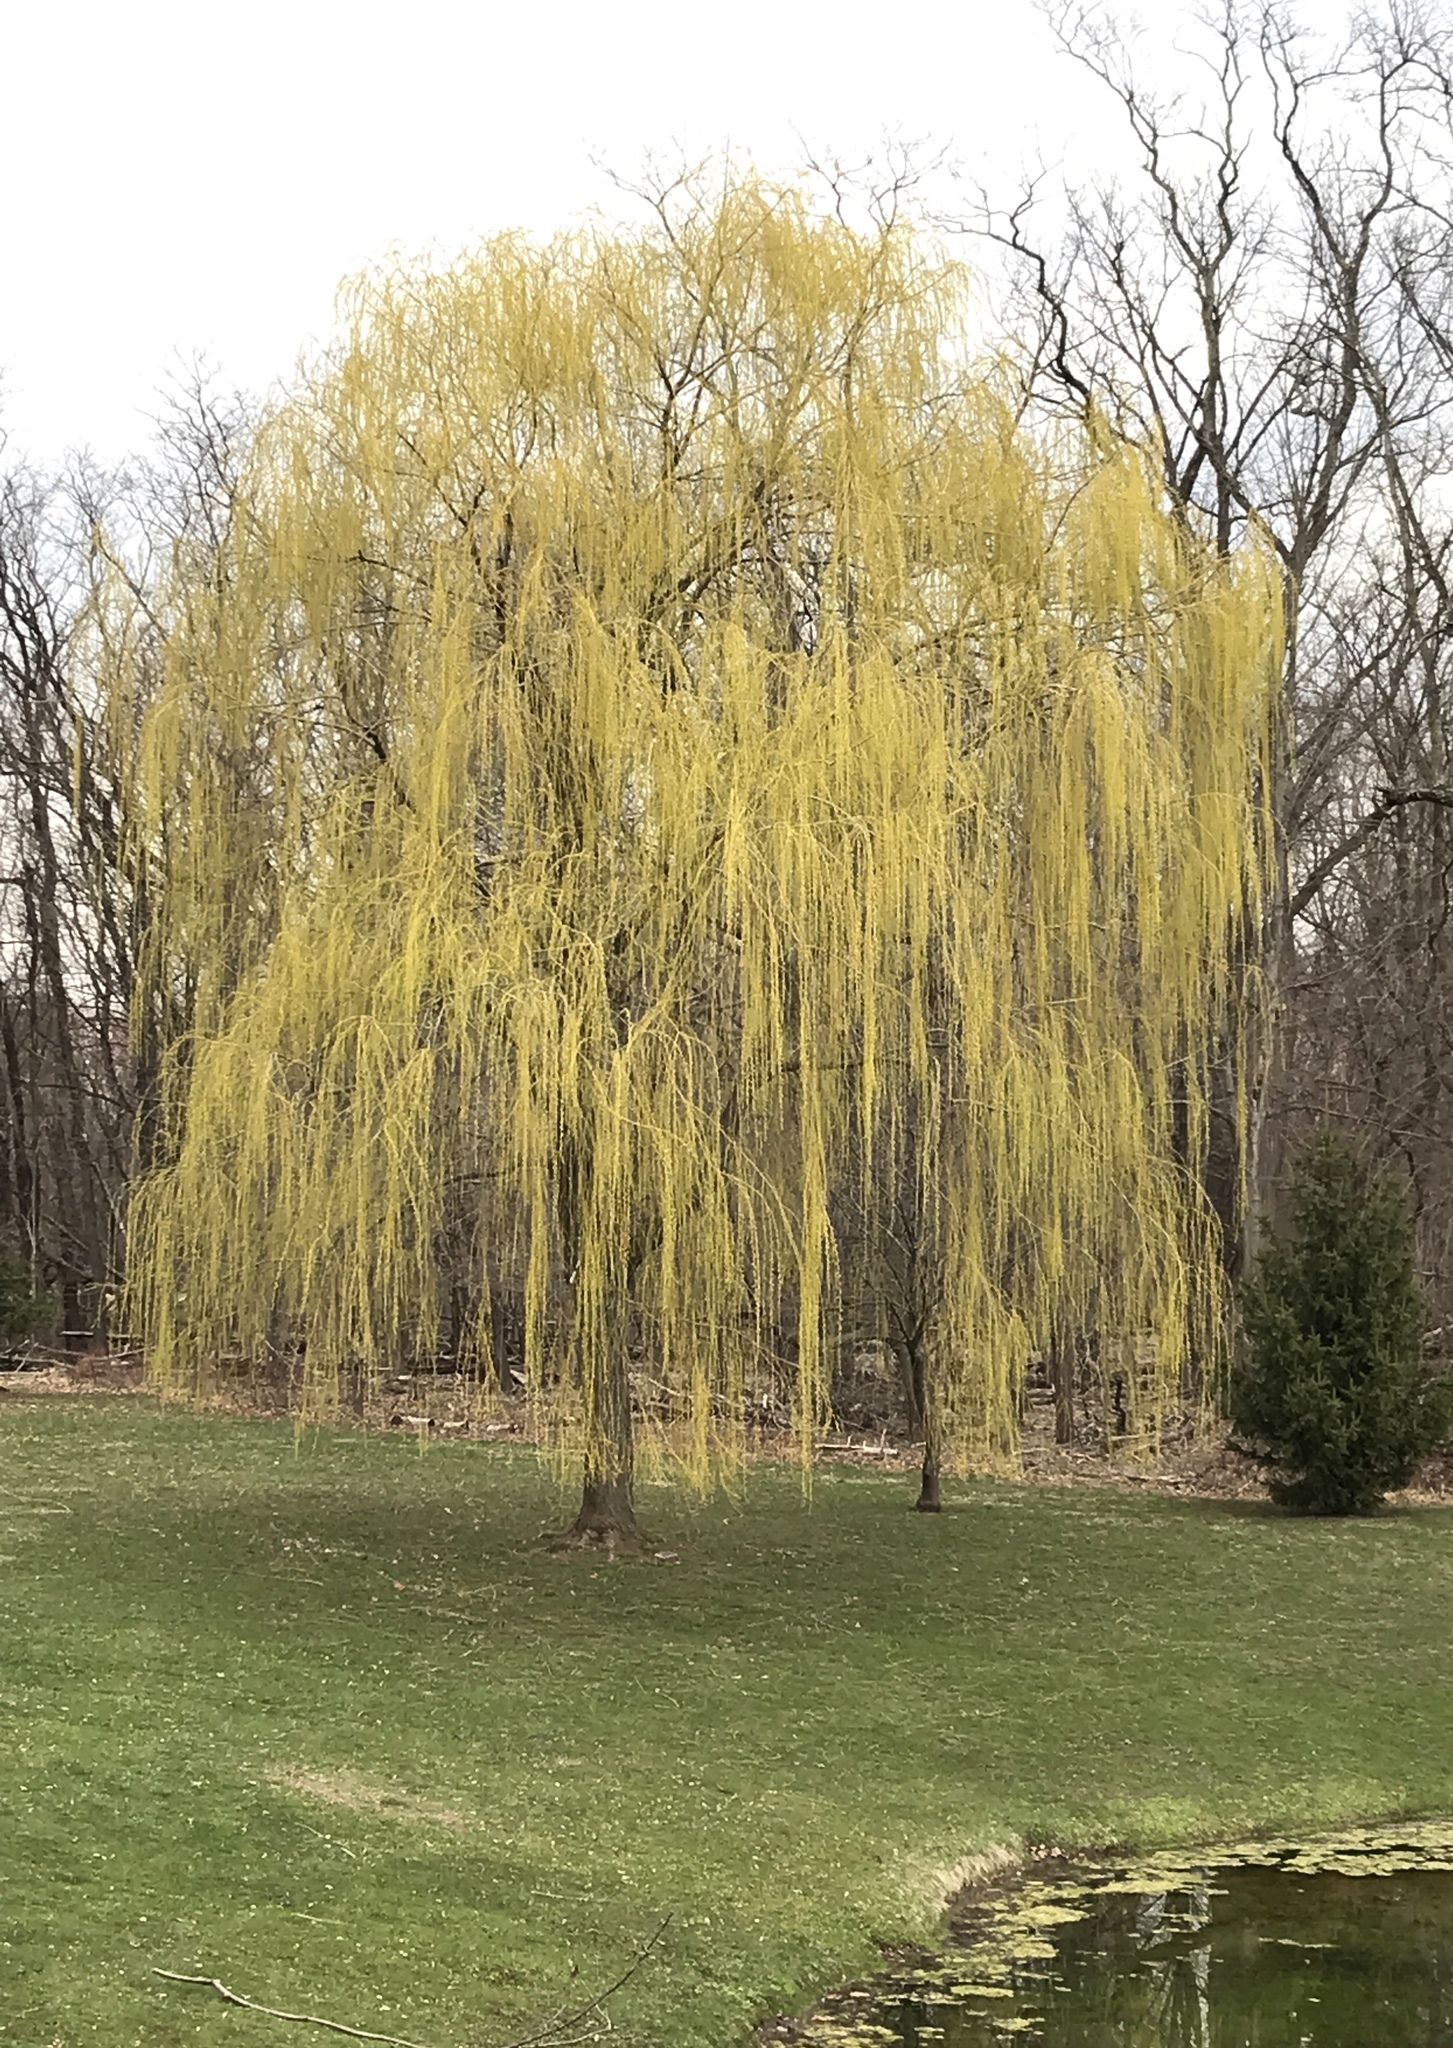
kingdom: Plantae
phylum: Tracheophyta
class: Magnoliopsida
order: Malpighiales
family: Salicaceae
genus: Salix
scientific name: Salix babylonica
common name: Weeping willow
